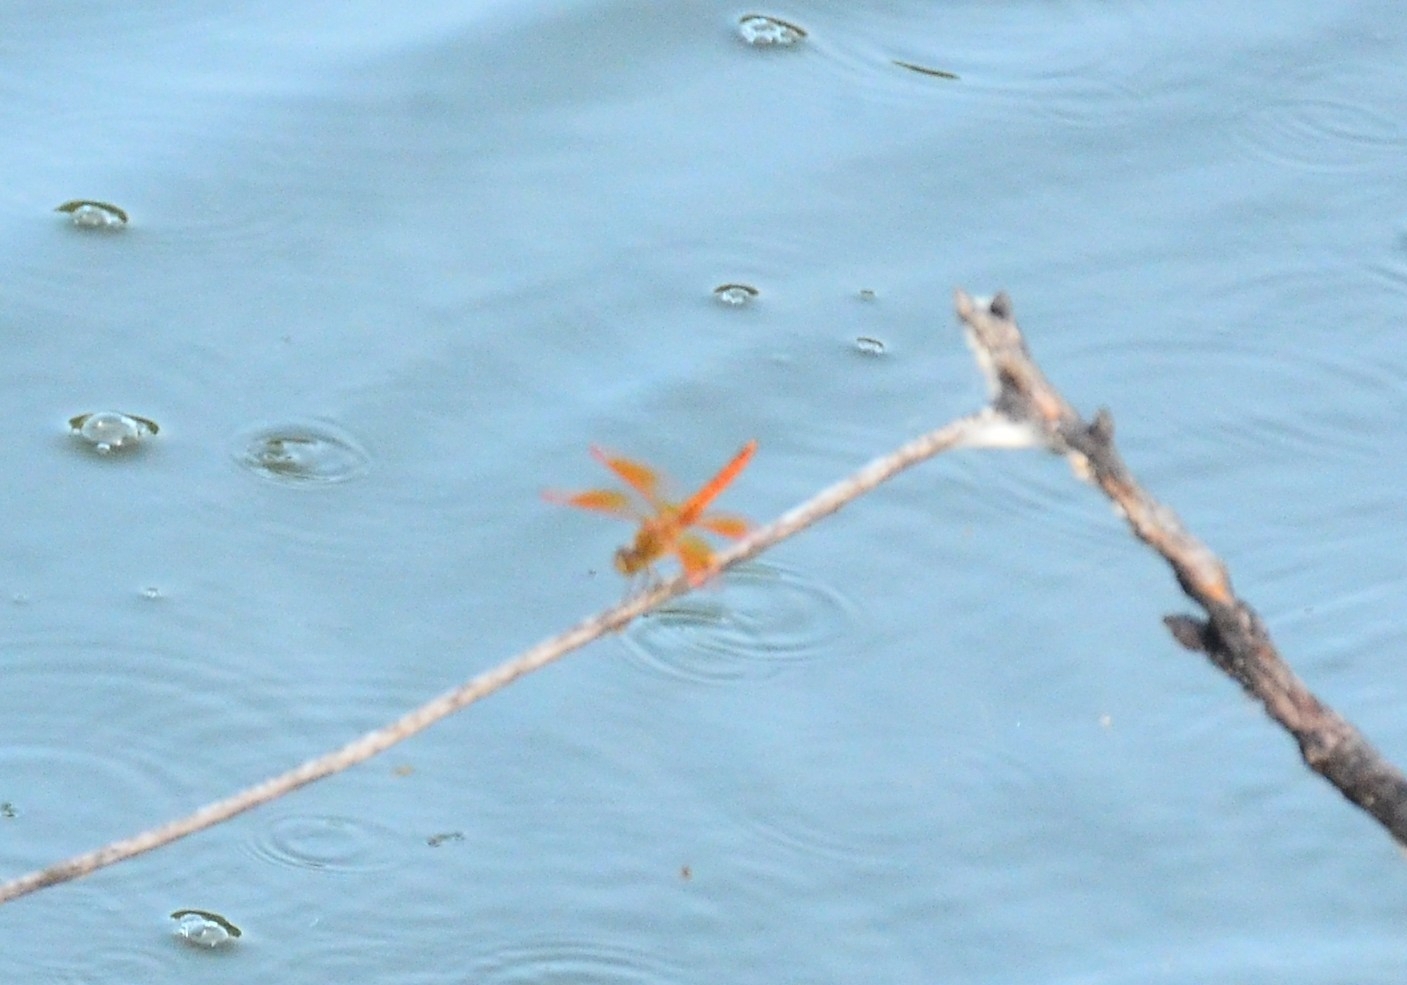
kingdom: Animalia
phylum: Arthropoda
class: Insecta
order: Odonata
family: Libellulidae
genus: Brachythemis
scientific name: Brachythemis contaminata
